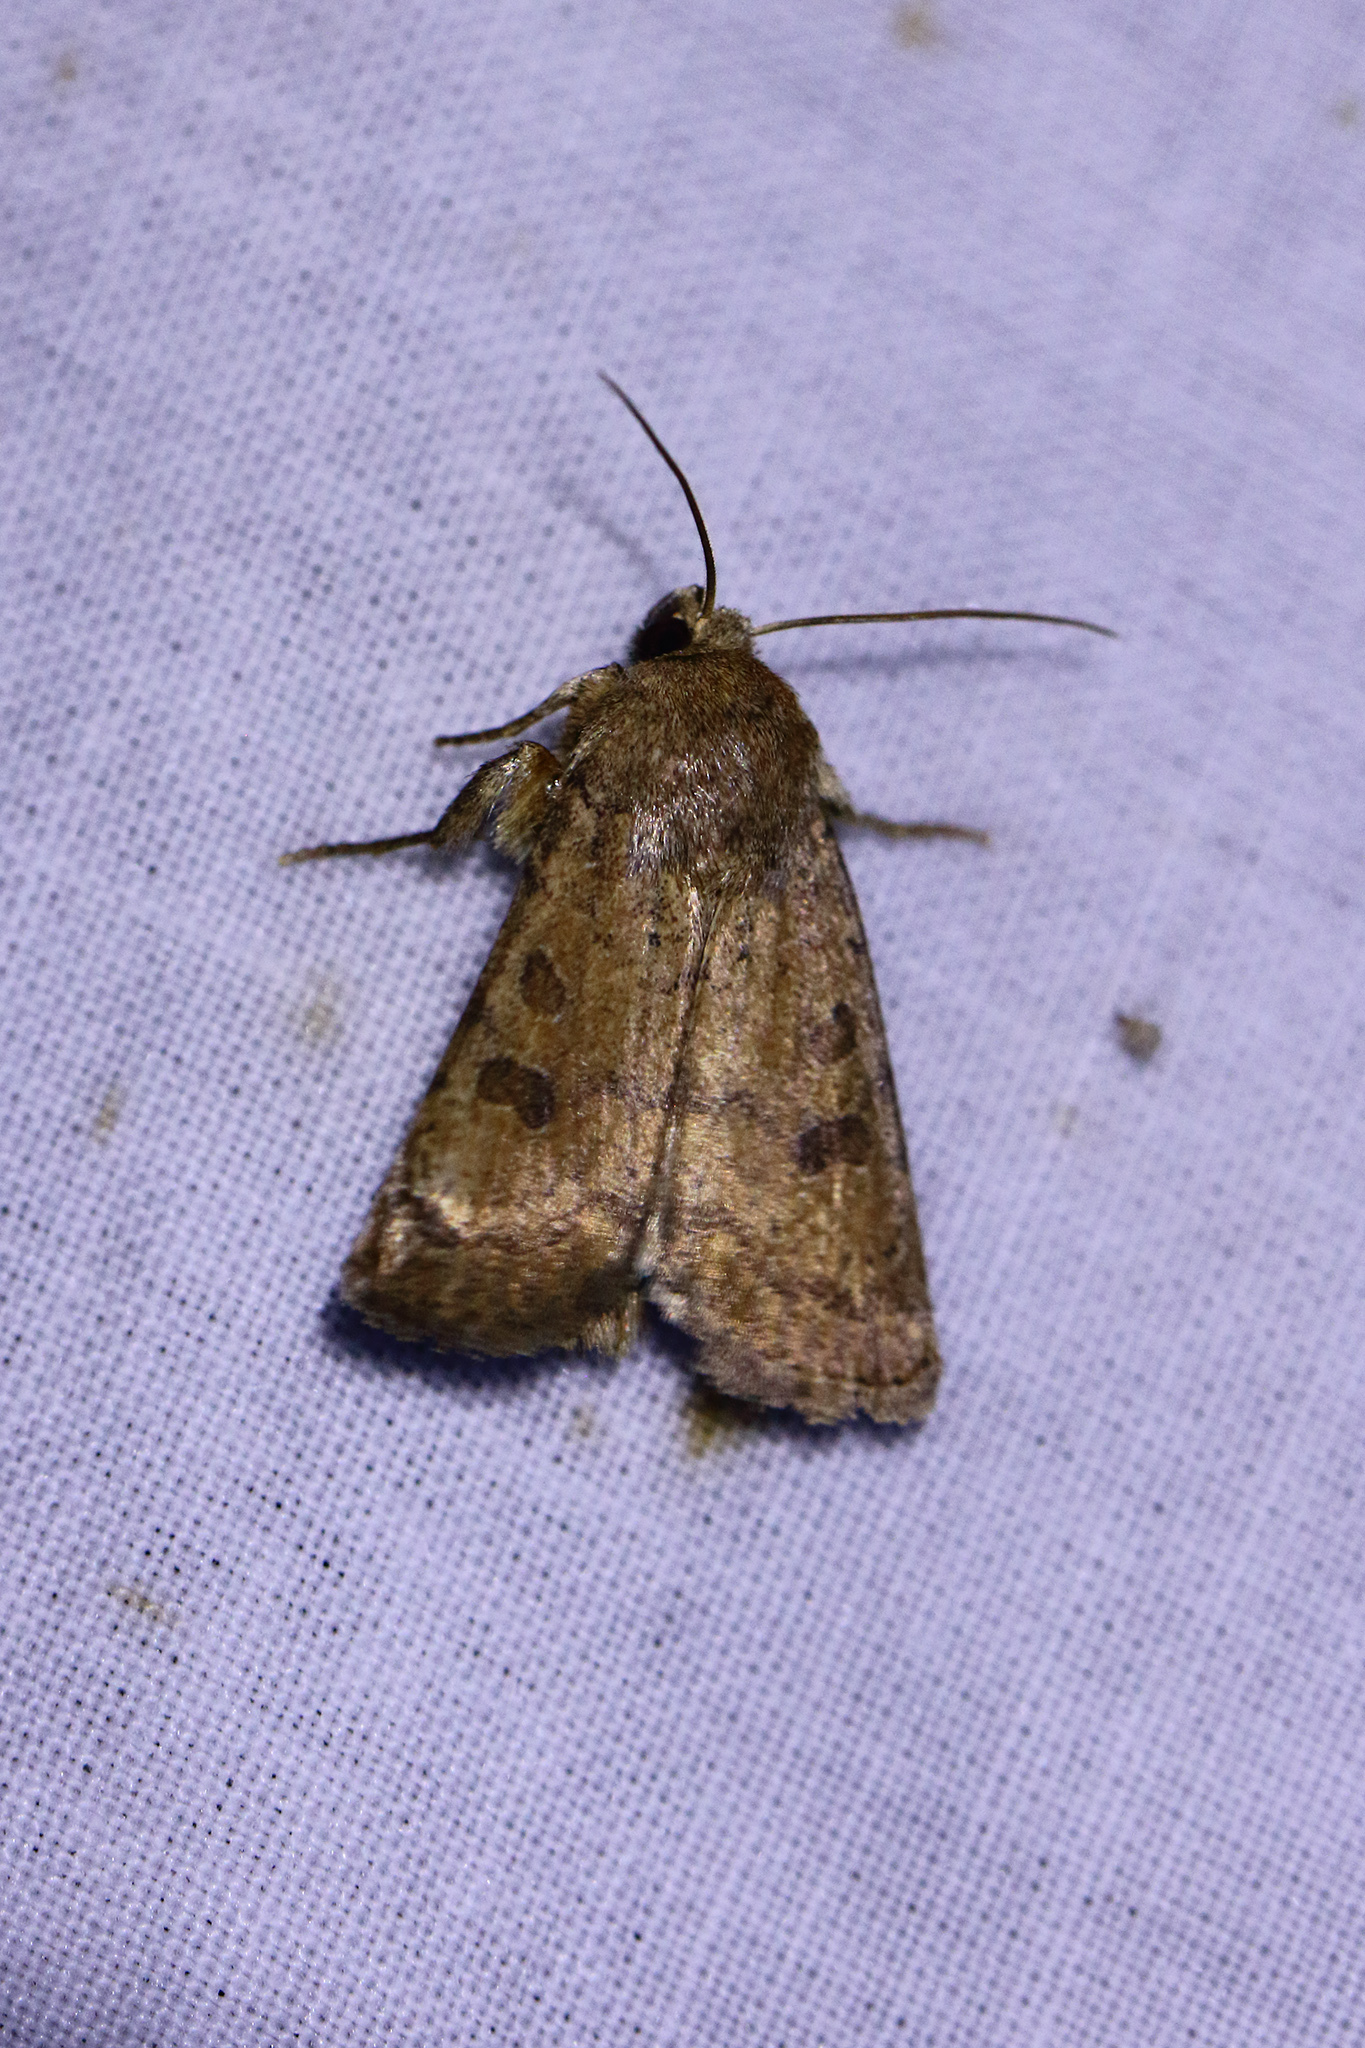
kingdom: Animalia
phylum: Arthropoda
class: Insecta
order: Lepidoptera
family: Noctuidae
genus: Hoplodrina
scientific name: Hoplodrina octogenaria
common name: Uncertain
